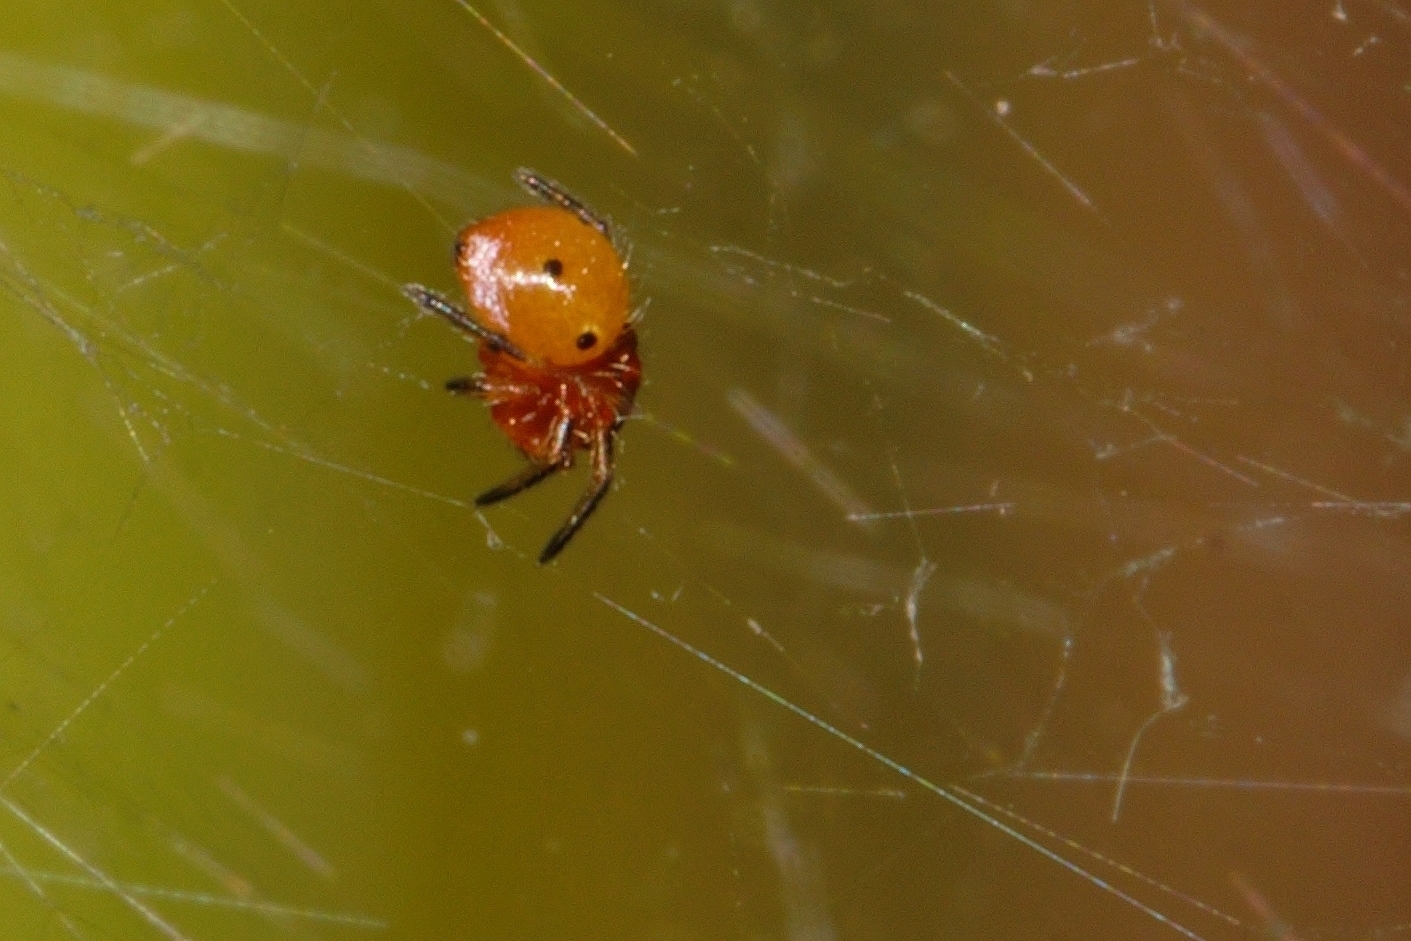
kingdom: Animalia
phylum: Arthropoda
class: Arachnida
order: Araneae
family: Araneidae
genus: Neoscona
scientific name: Neoscona rufipalpis
